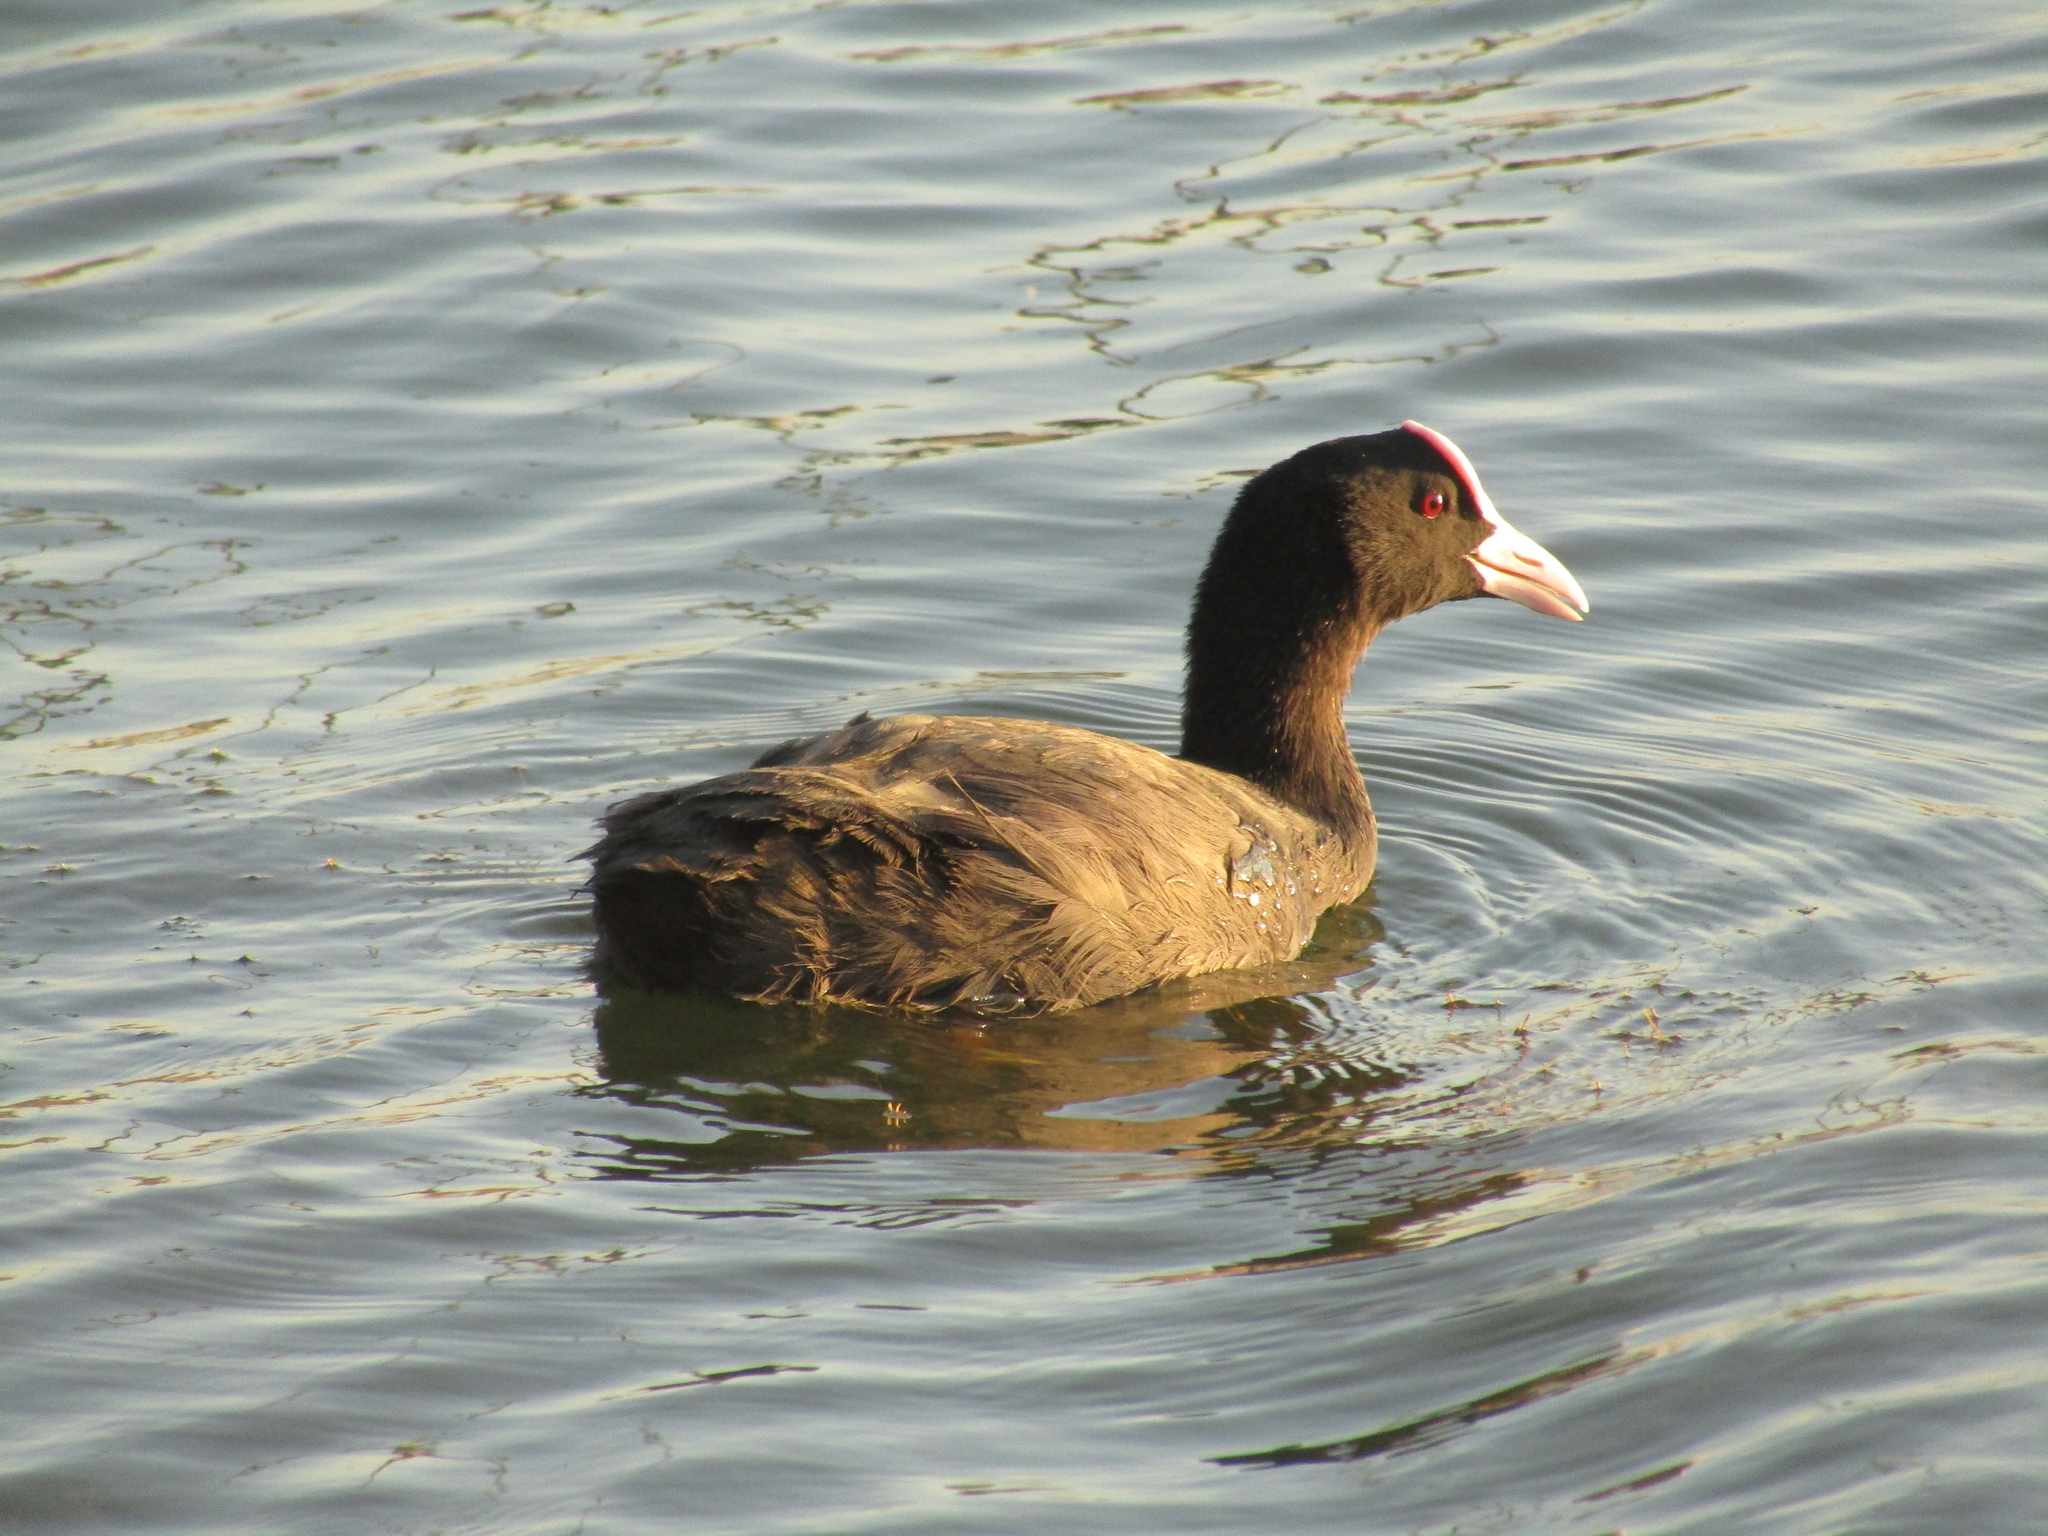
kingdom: Animalia
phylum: Chordata
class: Aves
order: Gruiformes
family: Rallidae
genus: Fulica
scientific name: Fulica atra
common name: Eurasian coot
